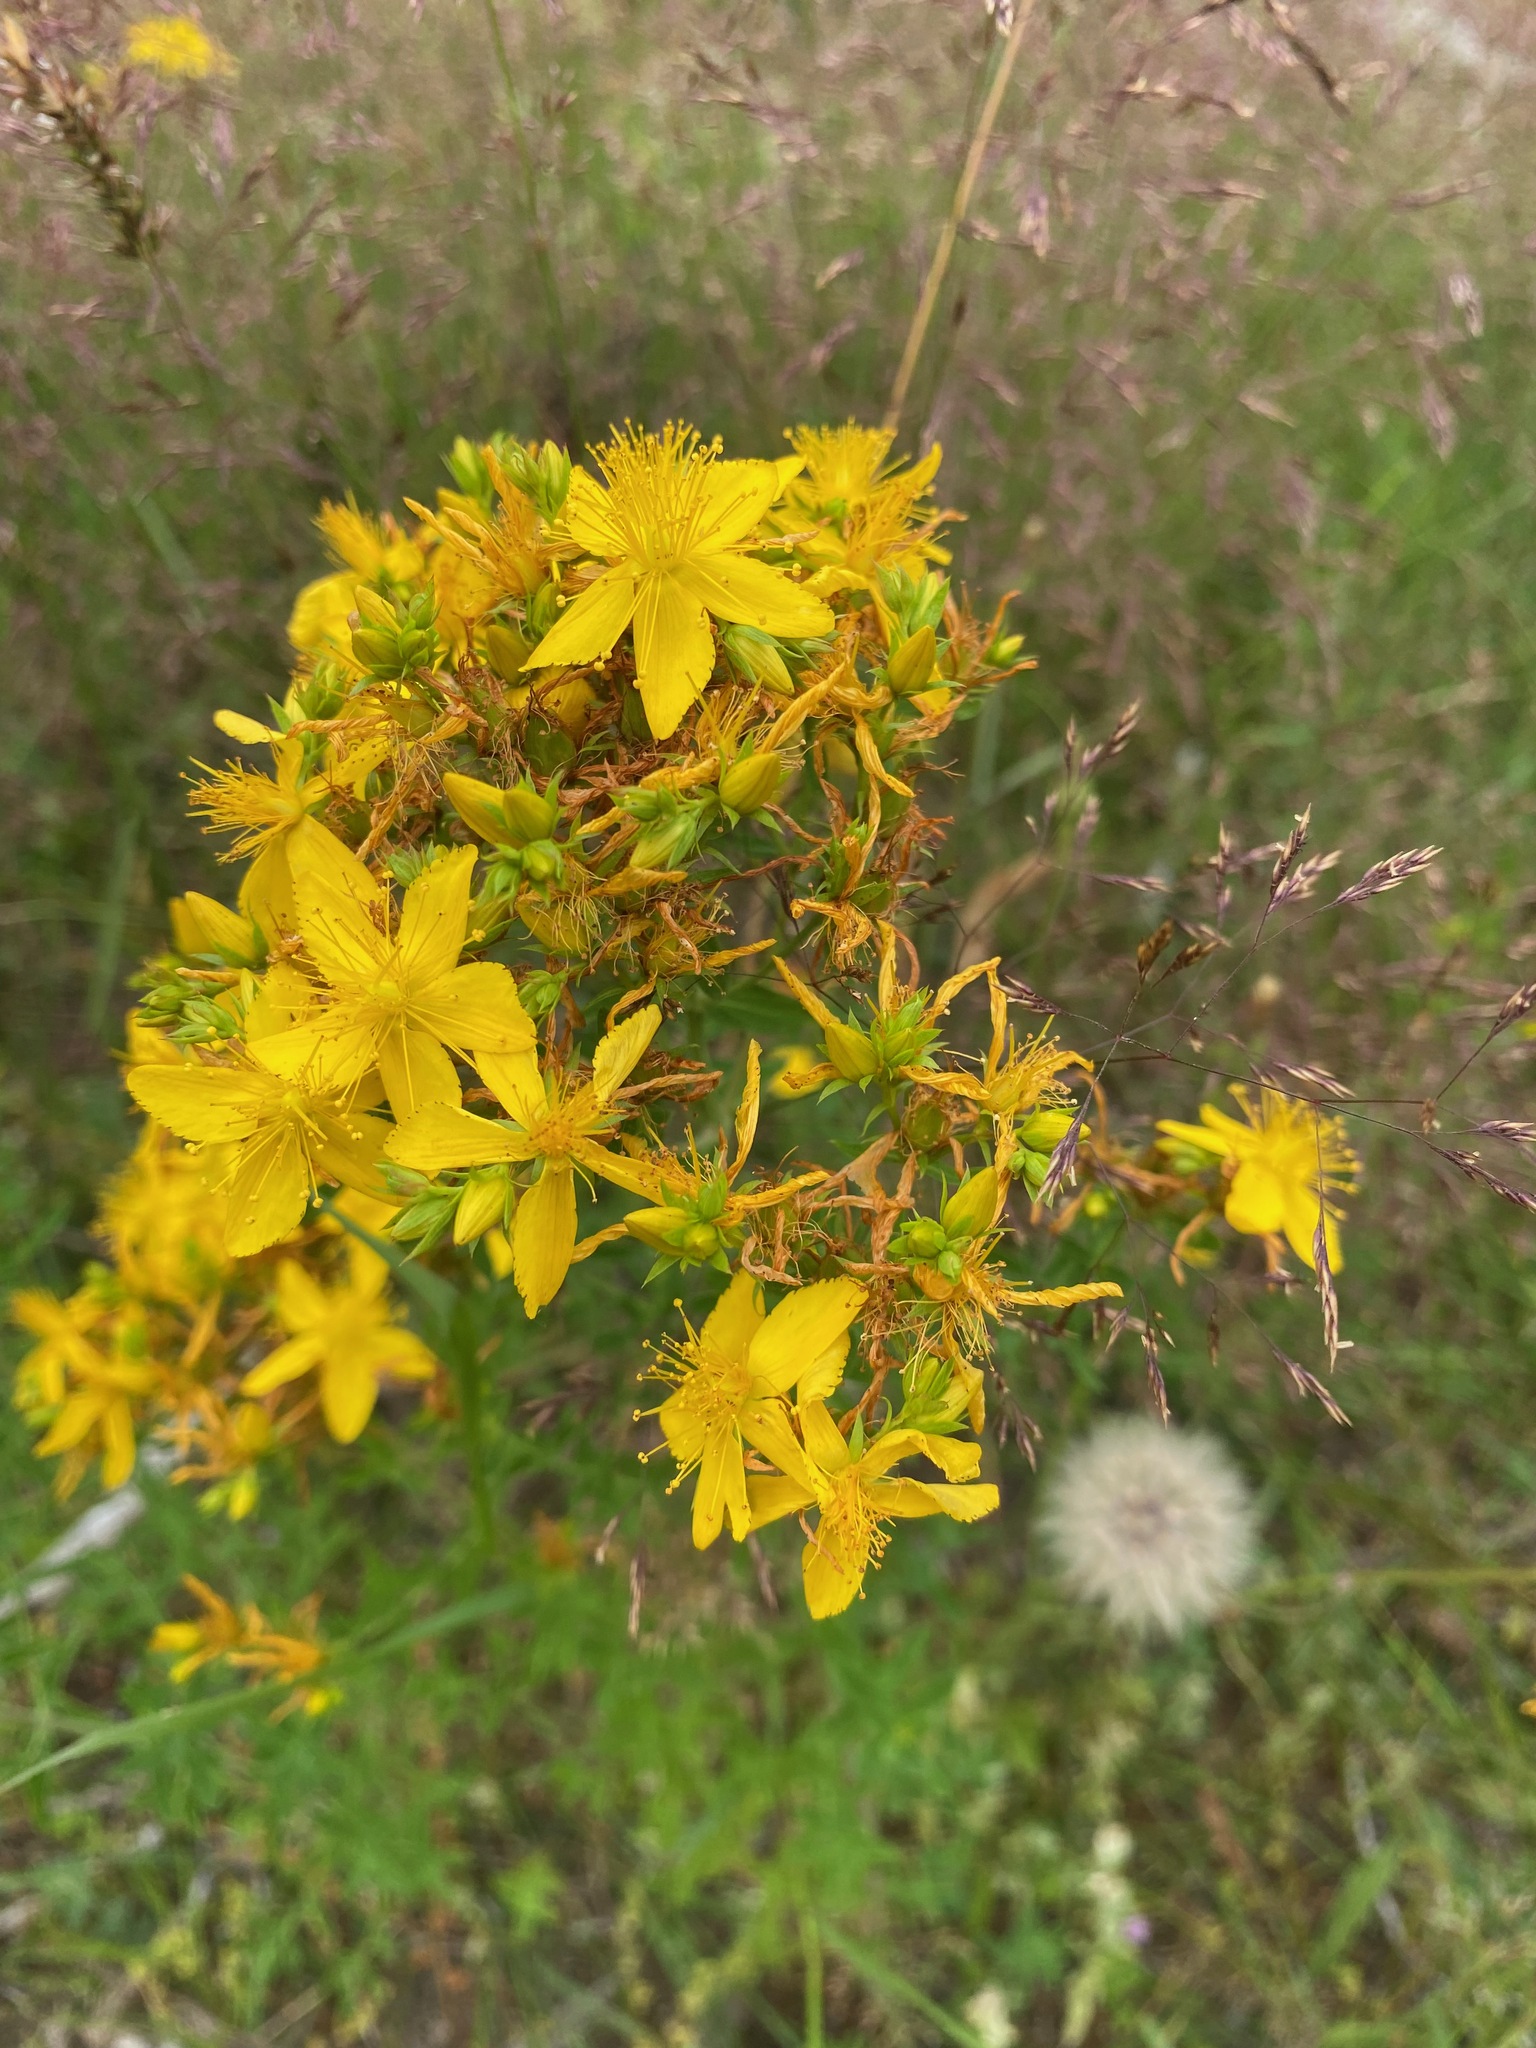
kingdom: Plantae
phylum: Tracheophyta
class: Magnoliopsida
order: Malpighiales
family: Hypericaceae
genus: Hypericum
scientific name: Hypericum perforatum
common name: Common st. johnswort
